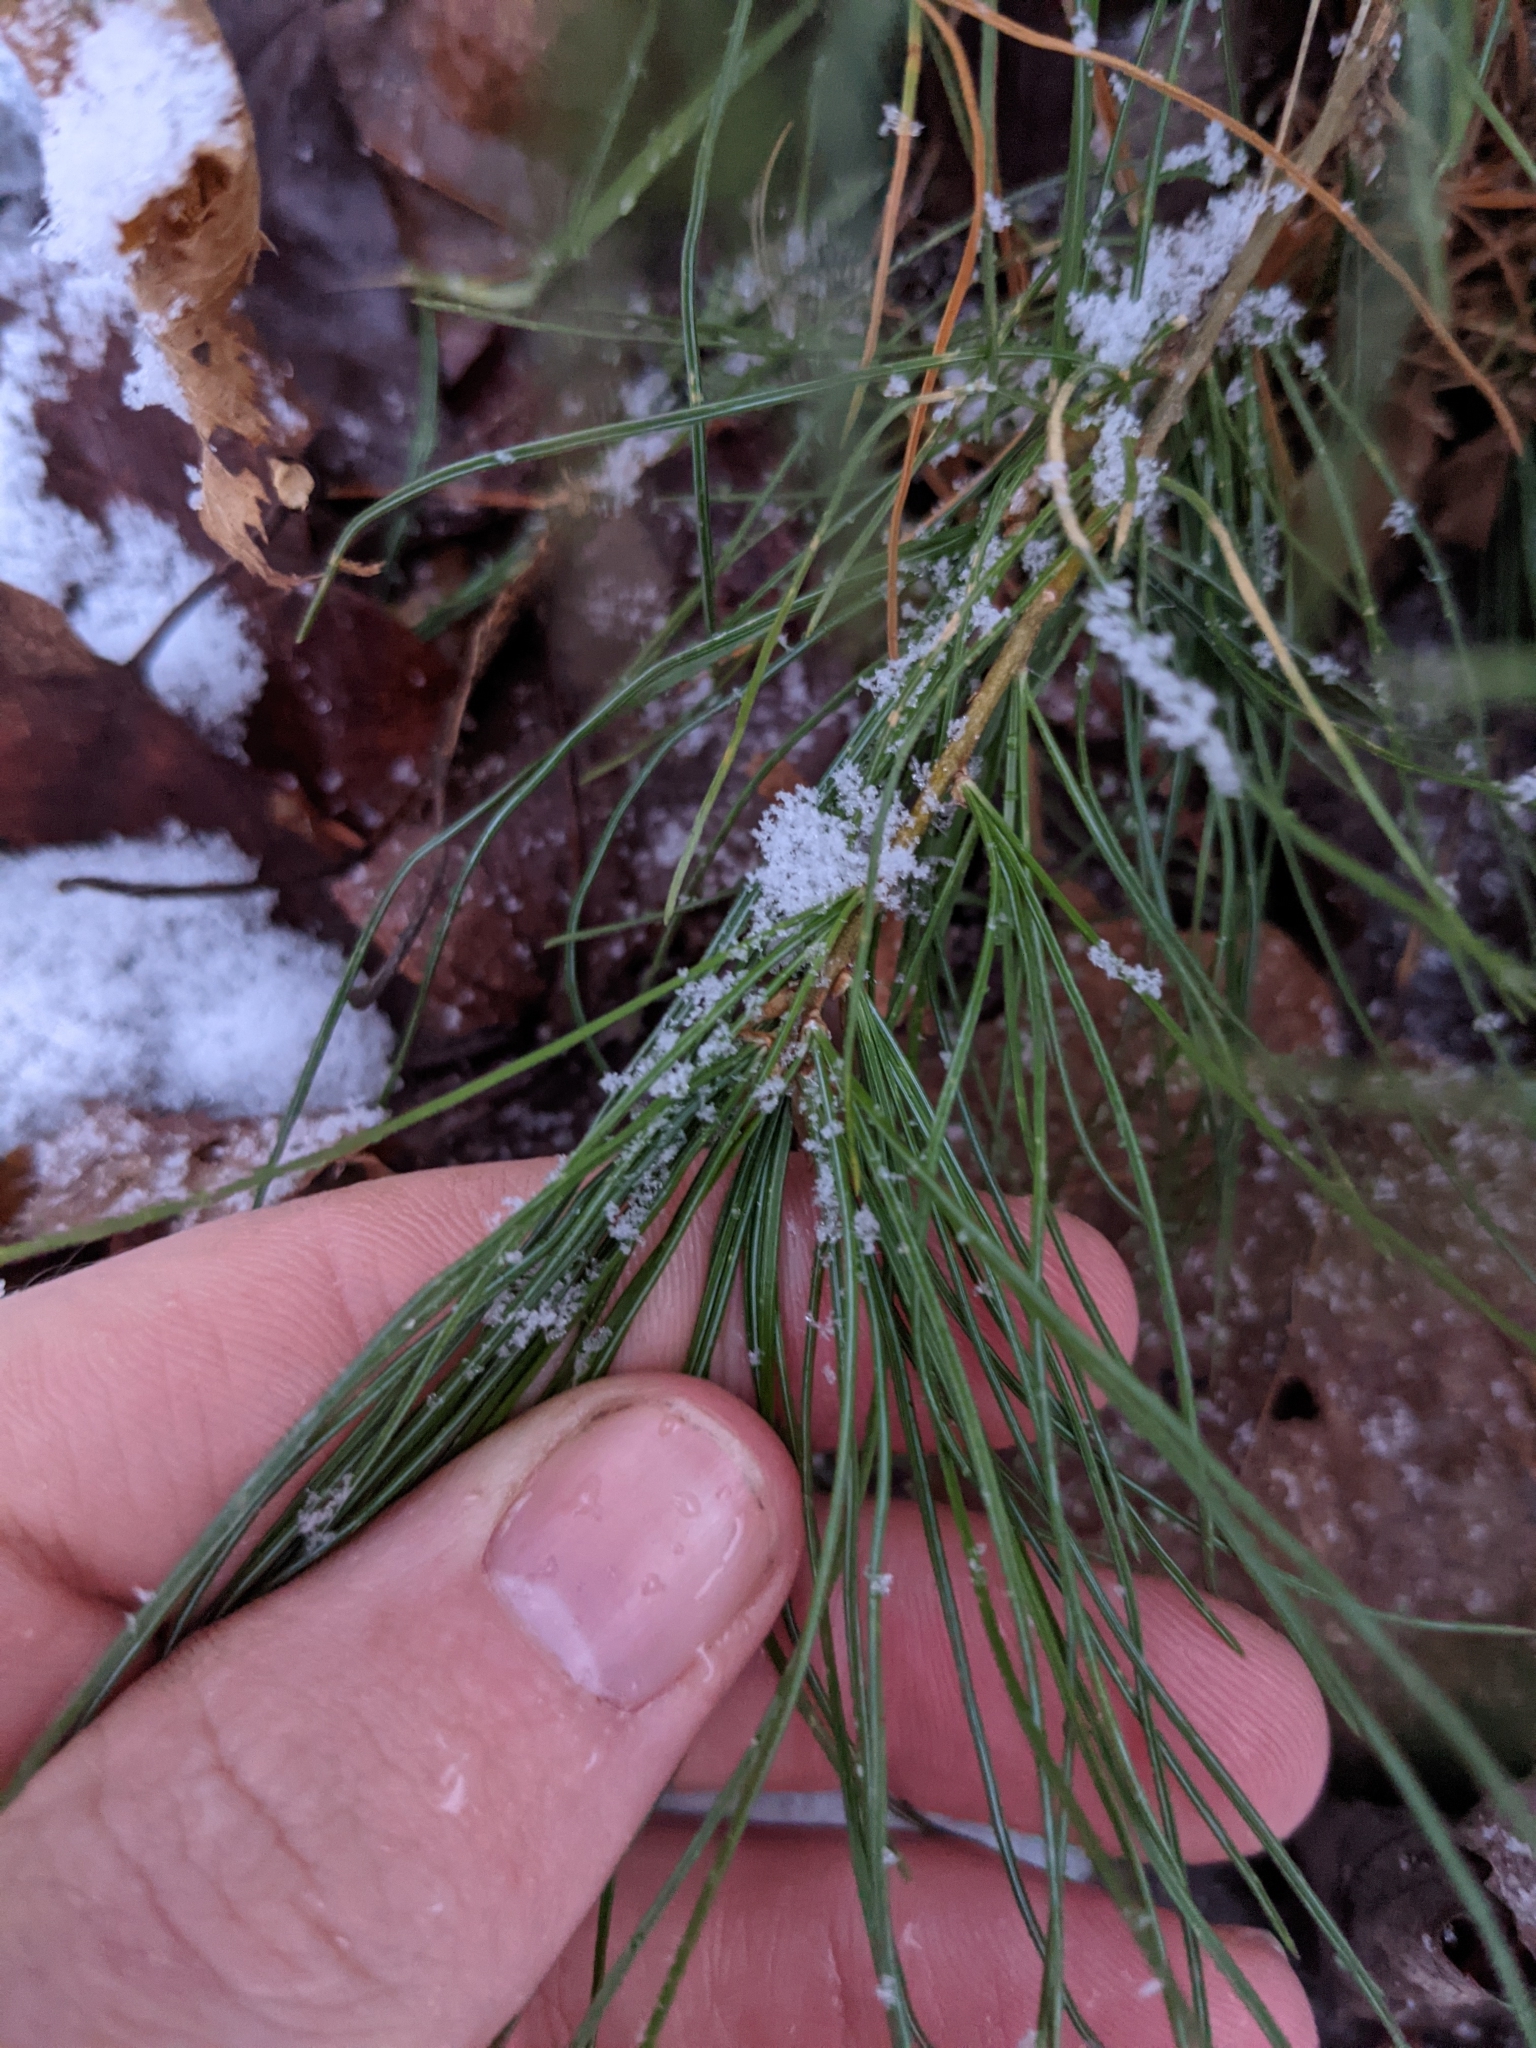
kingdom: Plantae
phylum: Tracheophyta
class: Pinopsida
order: Pinales
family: Pinaceae
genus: Pinus
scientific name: Pinus strobus
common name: Weymouth pine
